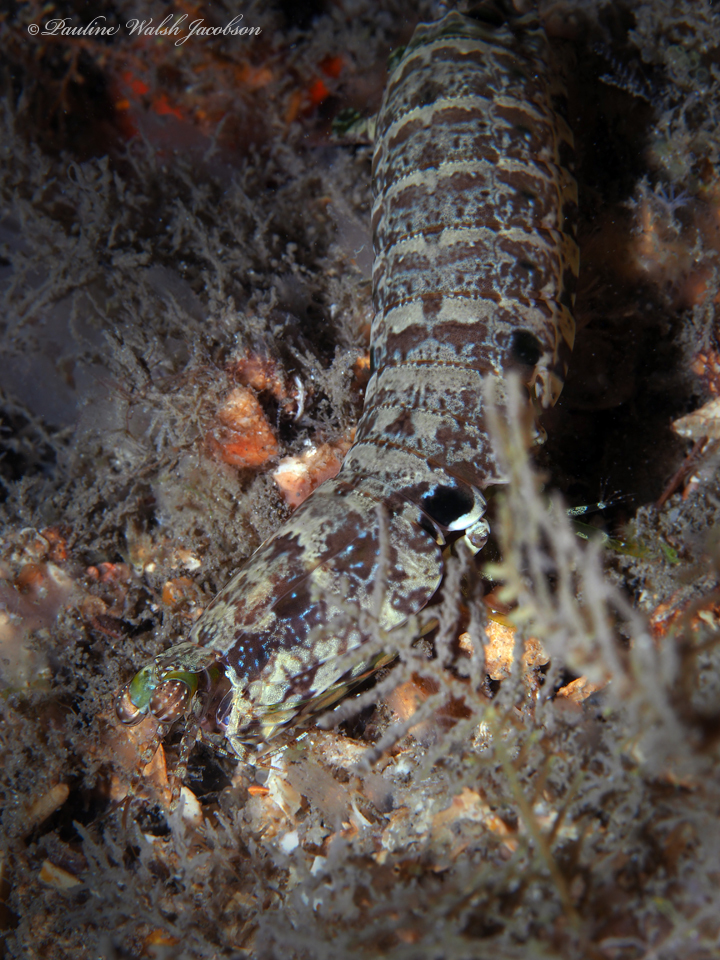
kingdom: Animalia
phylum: Arthropoda
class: Malacostraca
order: Stomatopoda
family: Pseudosquillidae
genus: Pseudosquilla
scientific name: Pseudosquilla ciliata
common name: Ciliated false squilla
